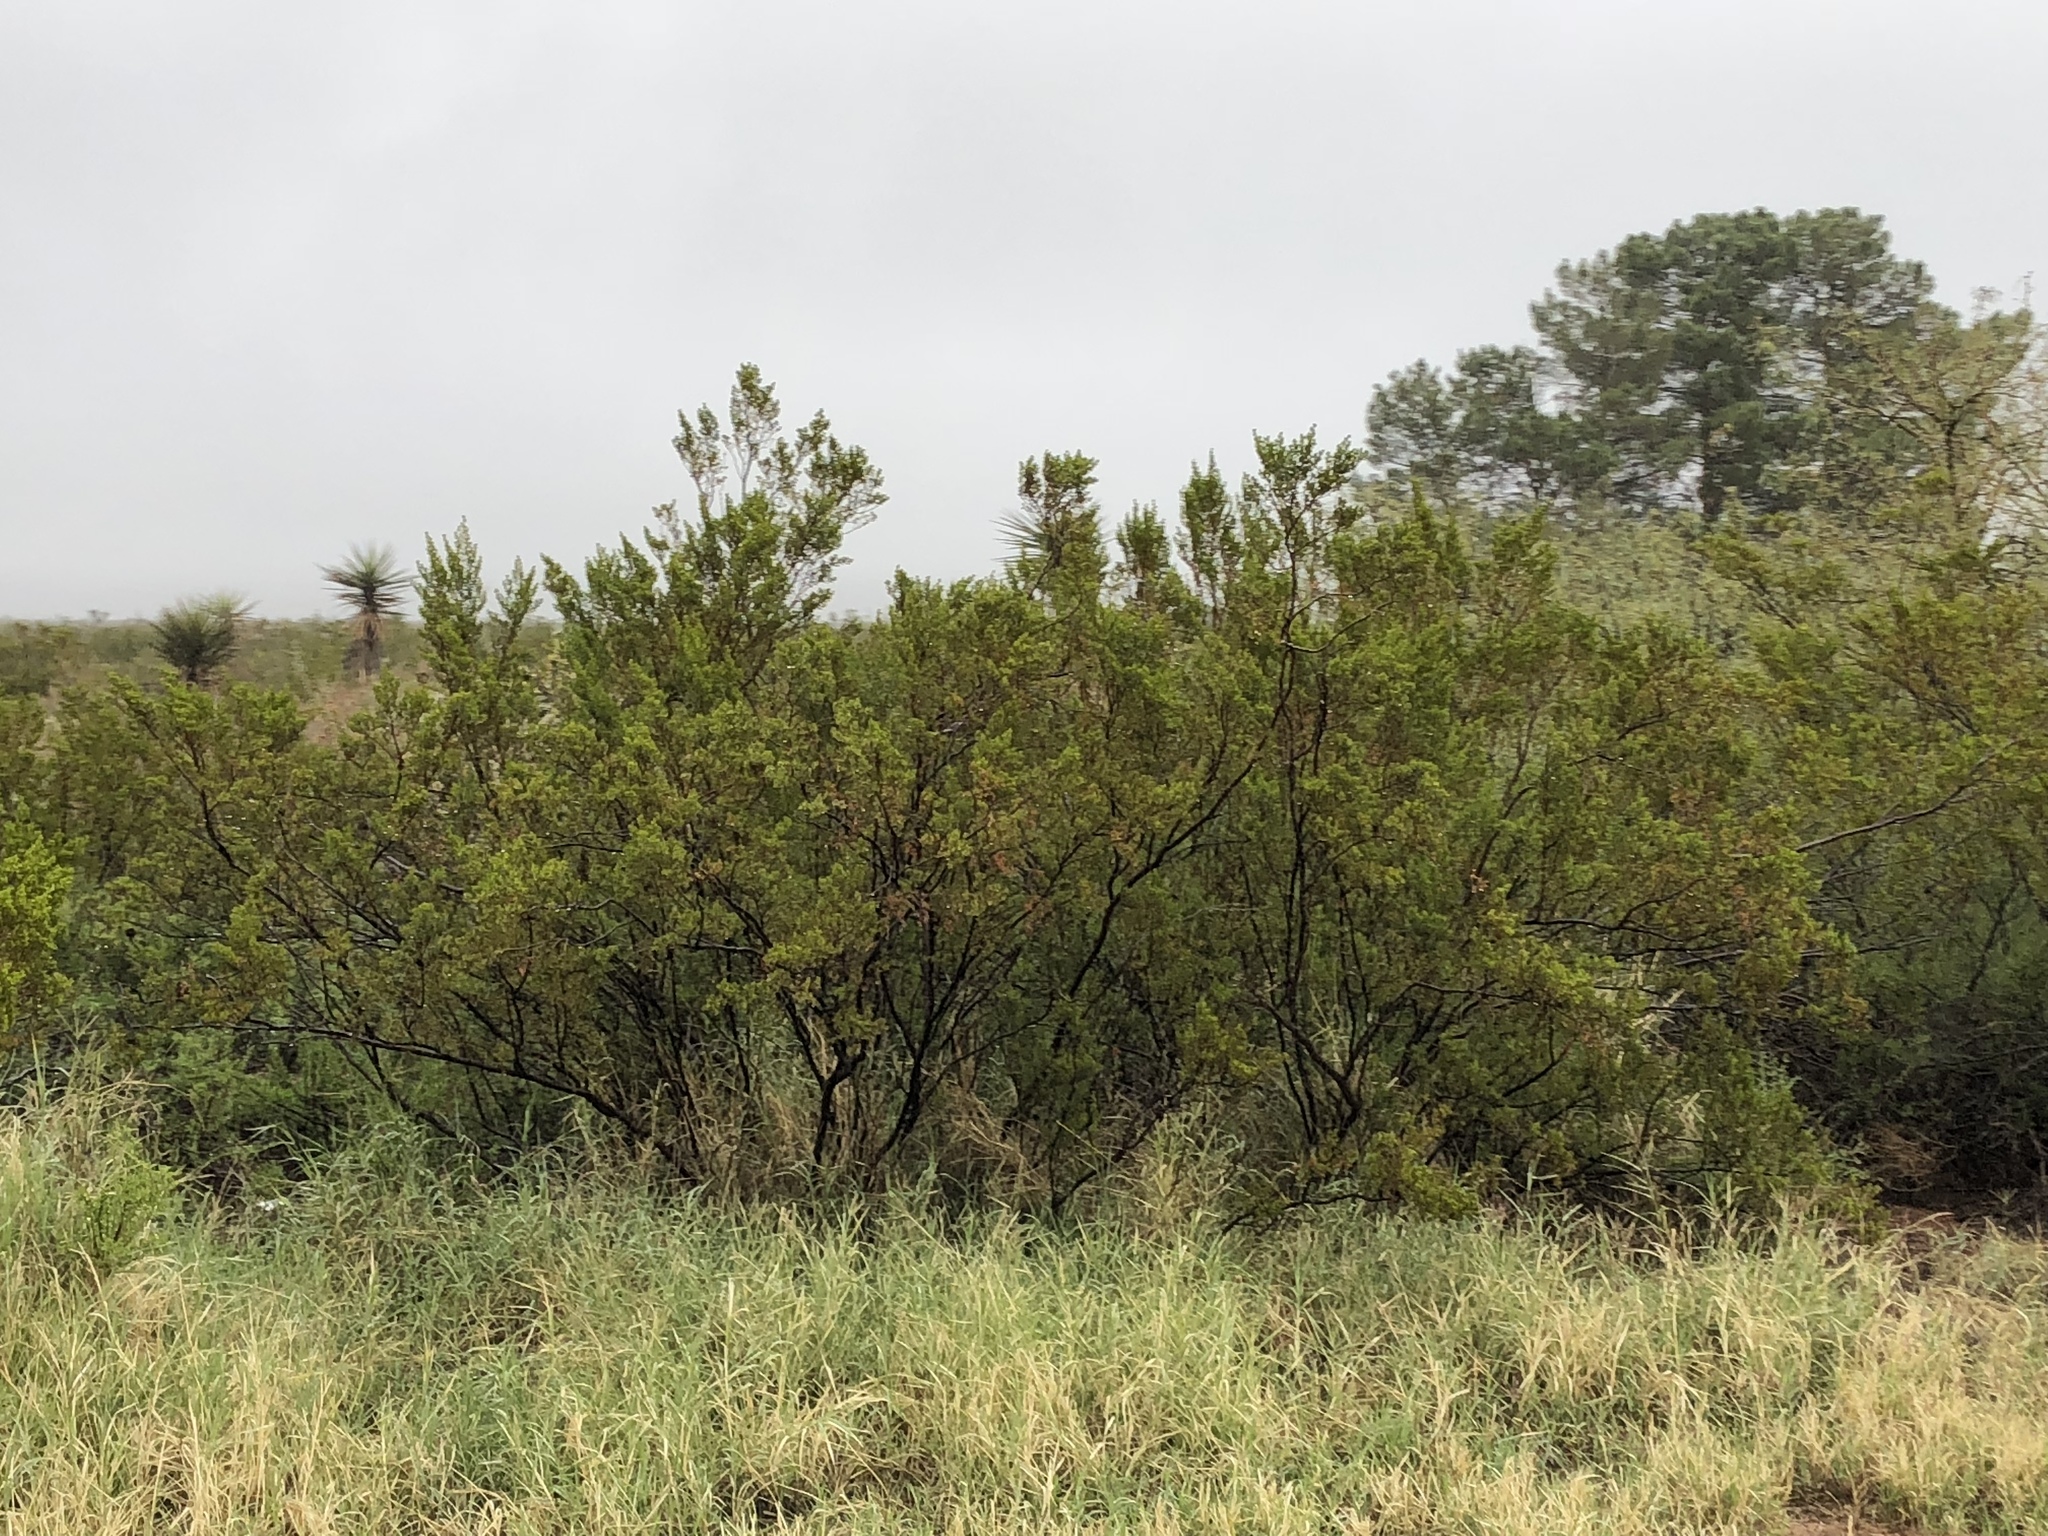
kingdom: Plantae
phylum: Tracheophyta
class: Magnoliopsida
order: Zygophyllales
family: Zygophyllaceae
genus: Larrea
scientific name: Larrea tridentata
